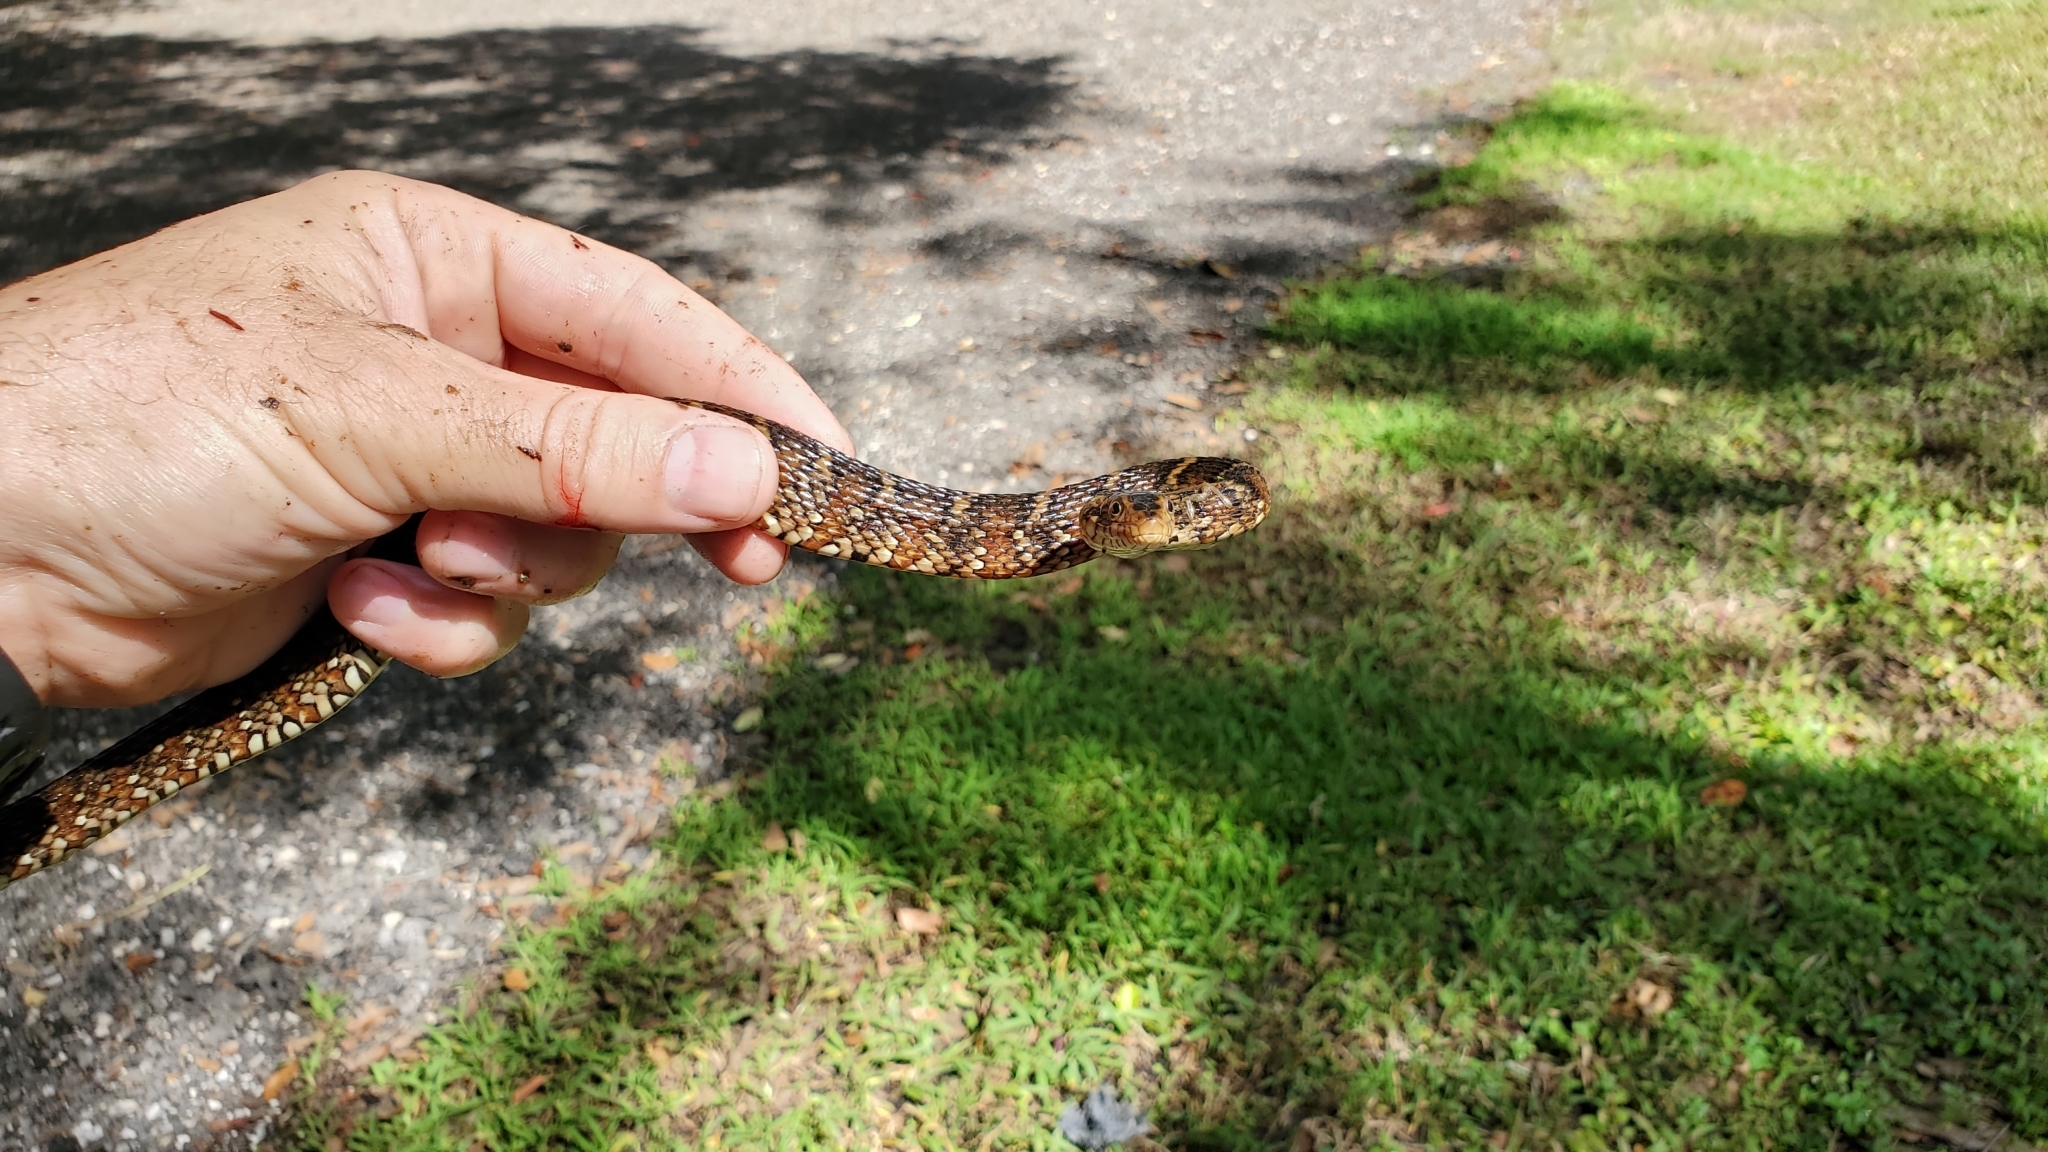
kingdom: Animalia
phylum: Chordata
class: Squamata
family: Colubridae
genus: Nerodia
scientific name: Nerodia fasciata
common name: Southern water snake
